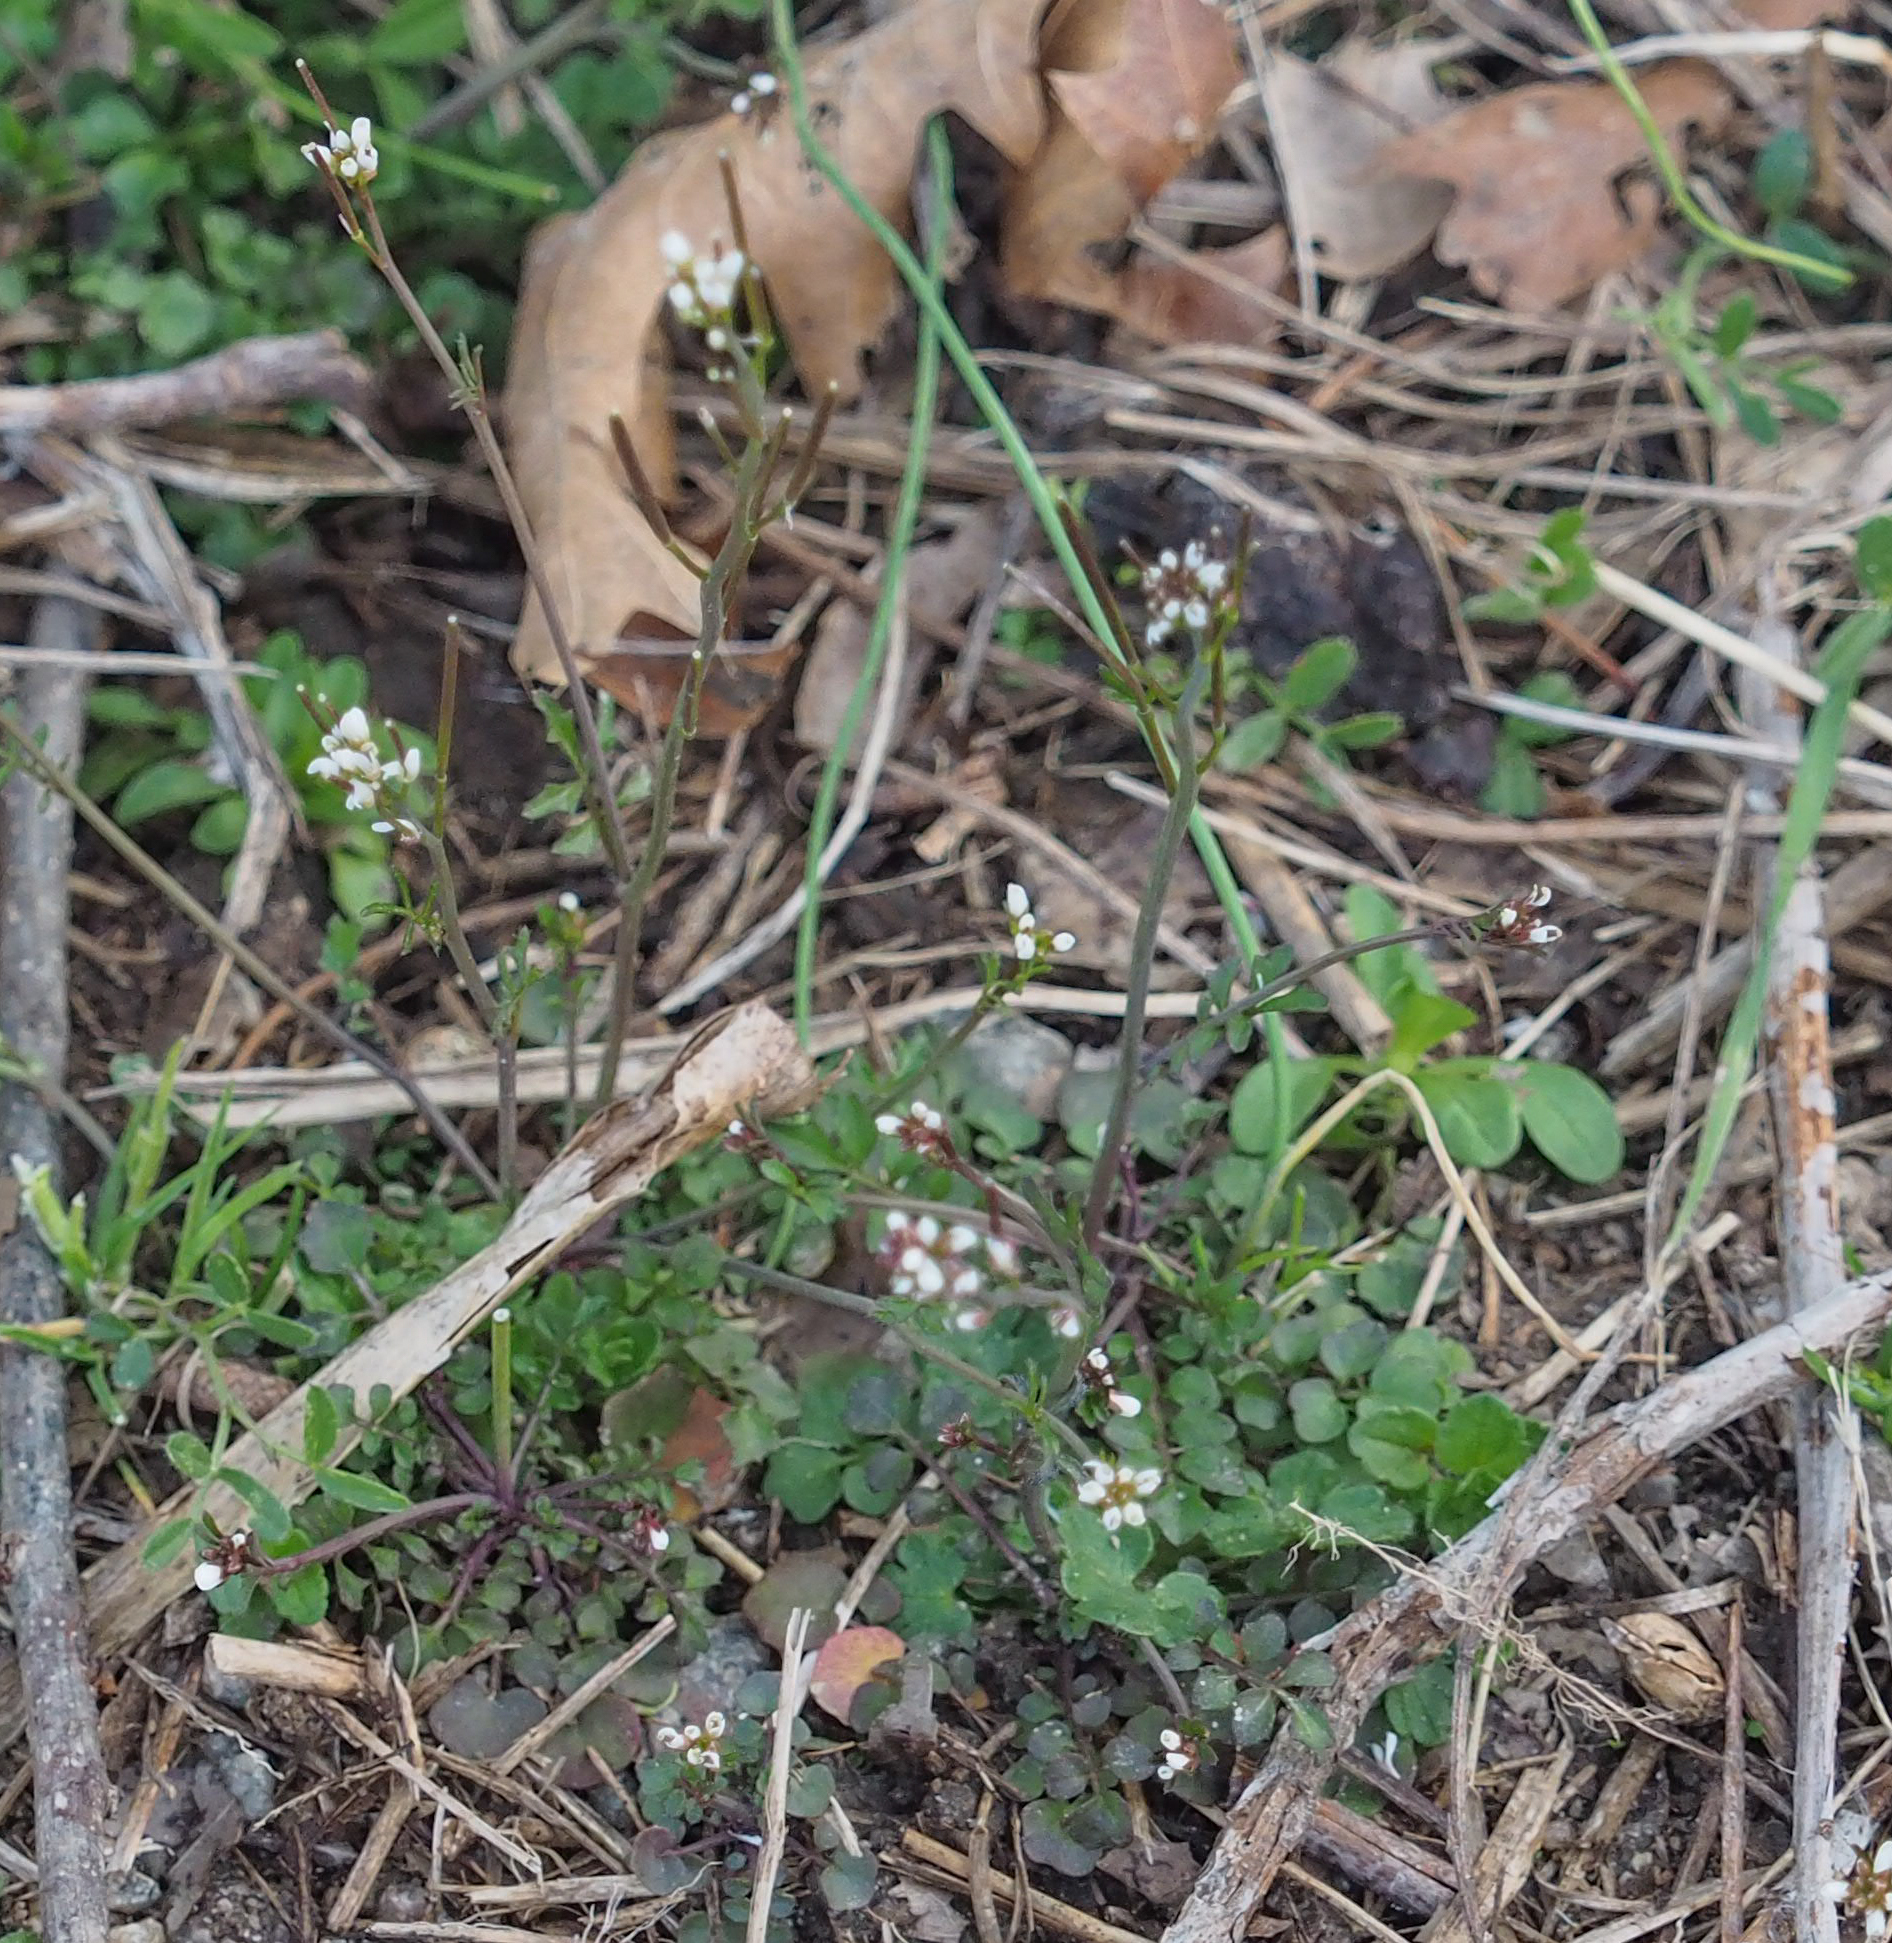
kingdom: Plantae
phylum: Tracheophyta
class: Magnoliopsida
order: Brassicales
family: Brassicaceae
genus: Cardamine
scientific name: Cardamine hirsuta
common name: Hairy bittercress
